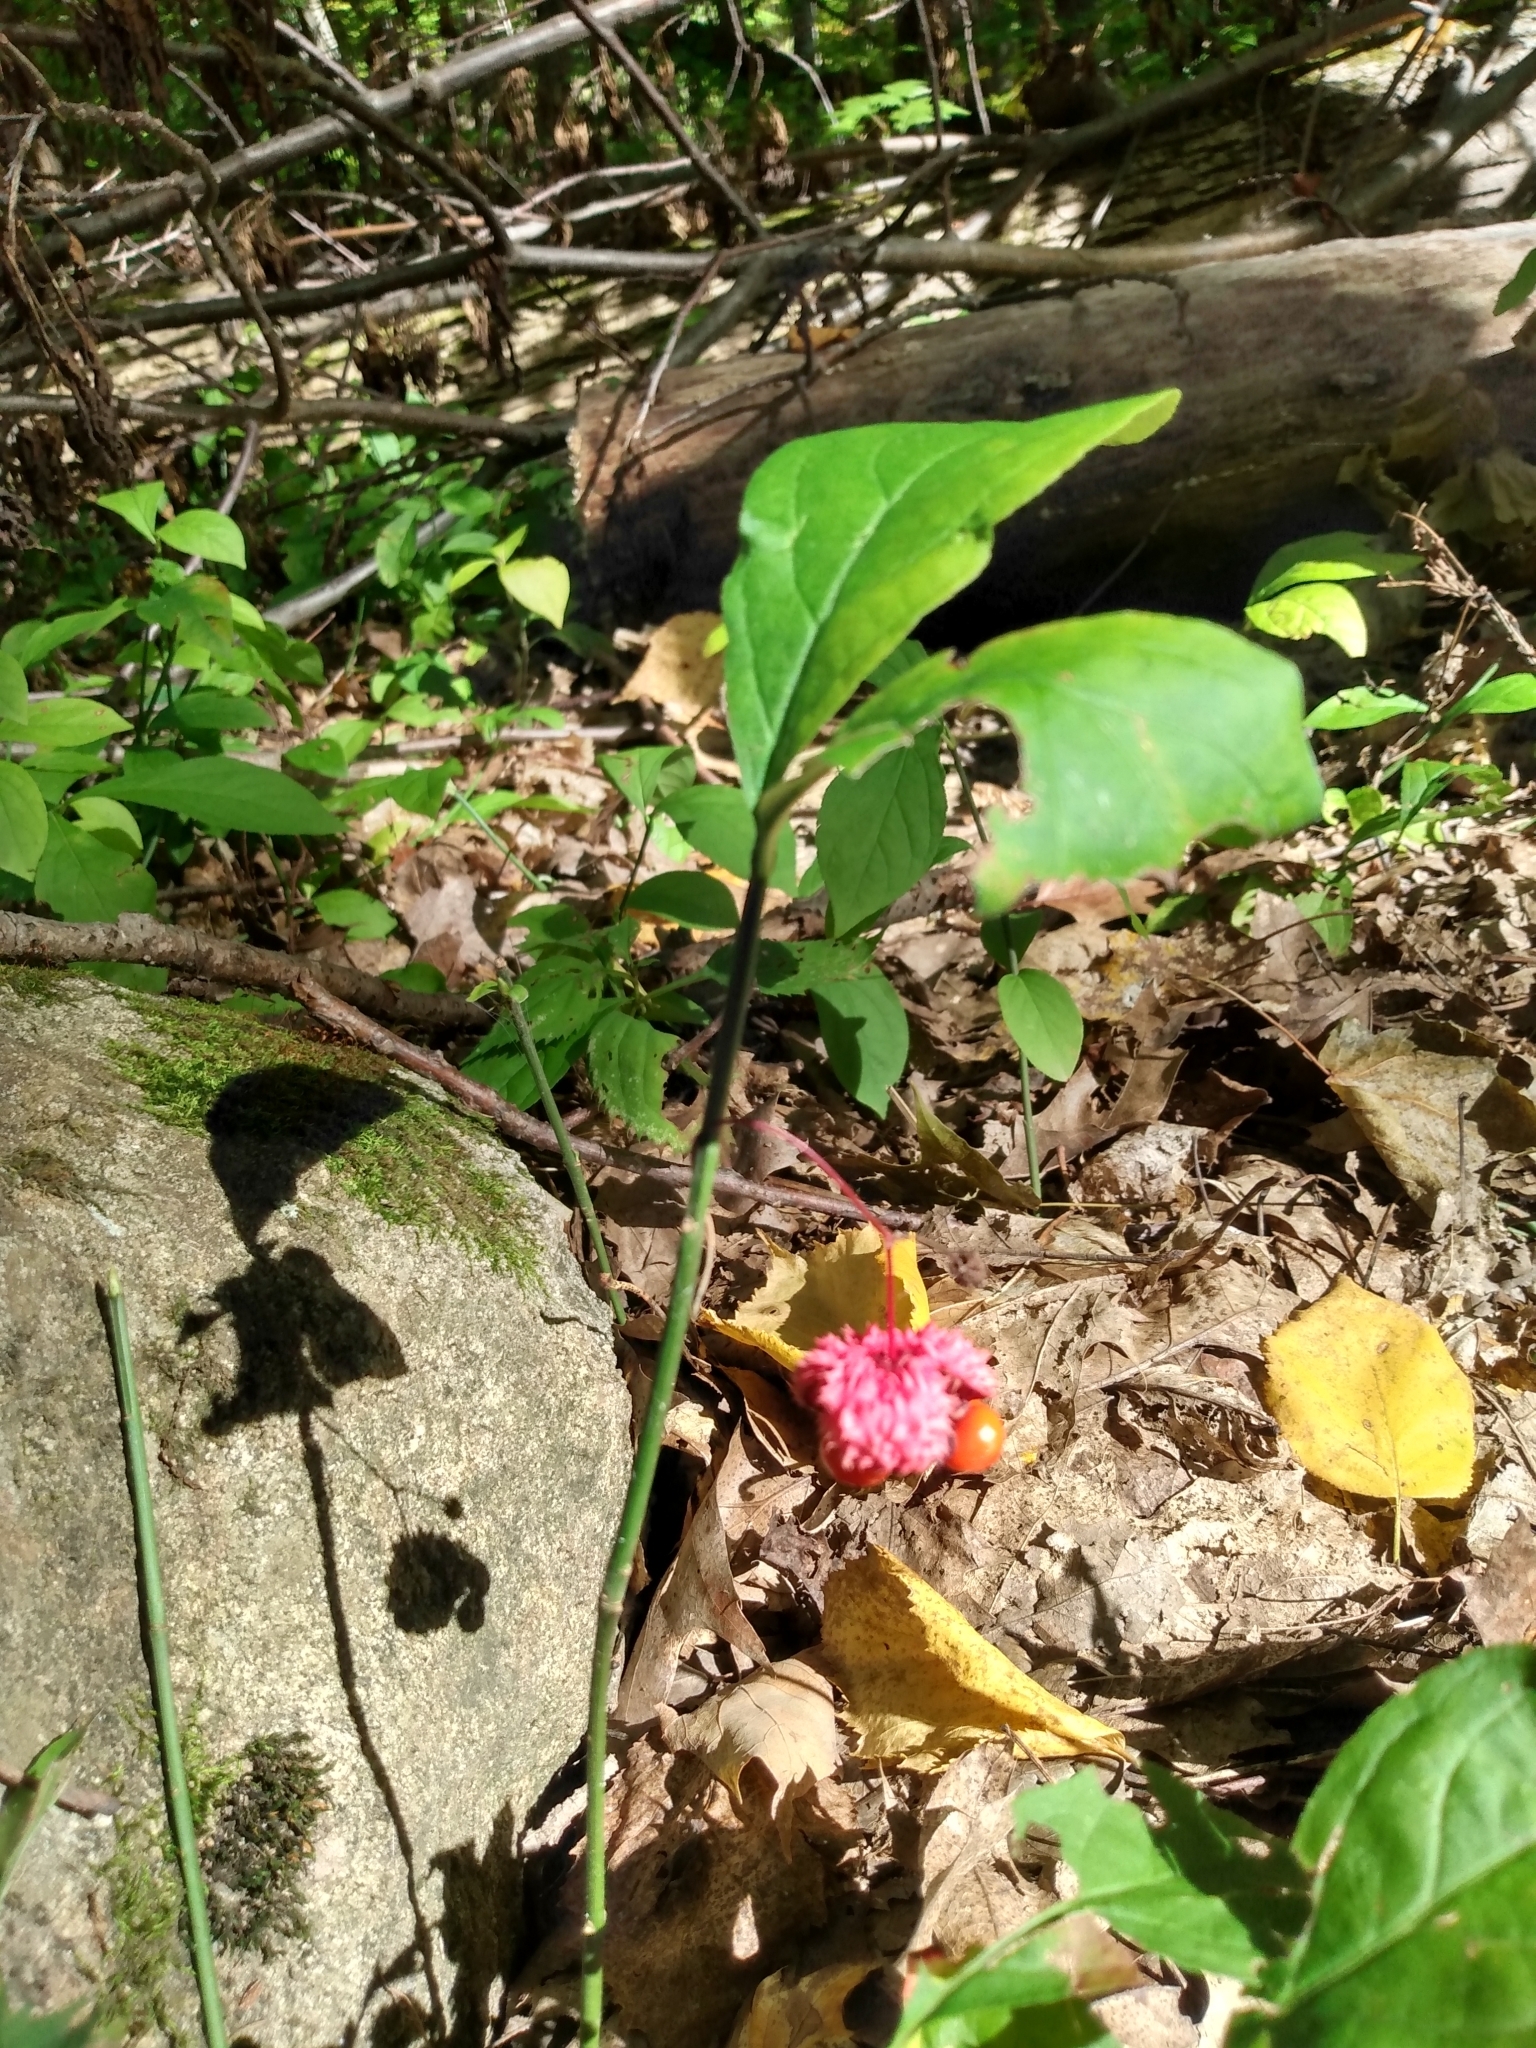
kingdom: Plantae
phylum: Tracheophyta
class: Magnoliopsida
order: Celastrales
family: Celastraceae
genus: Euonymus
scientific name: Euonymus obovatus
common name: Running strawberry-bush
